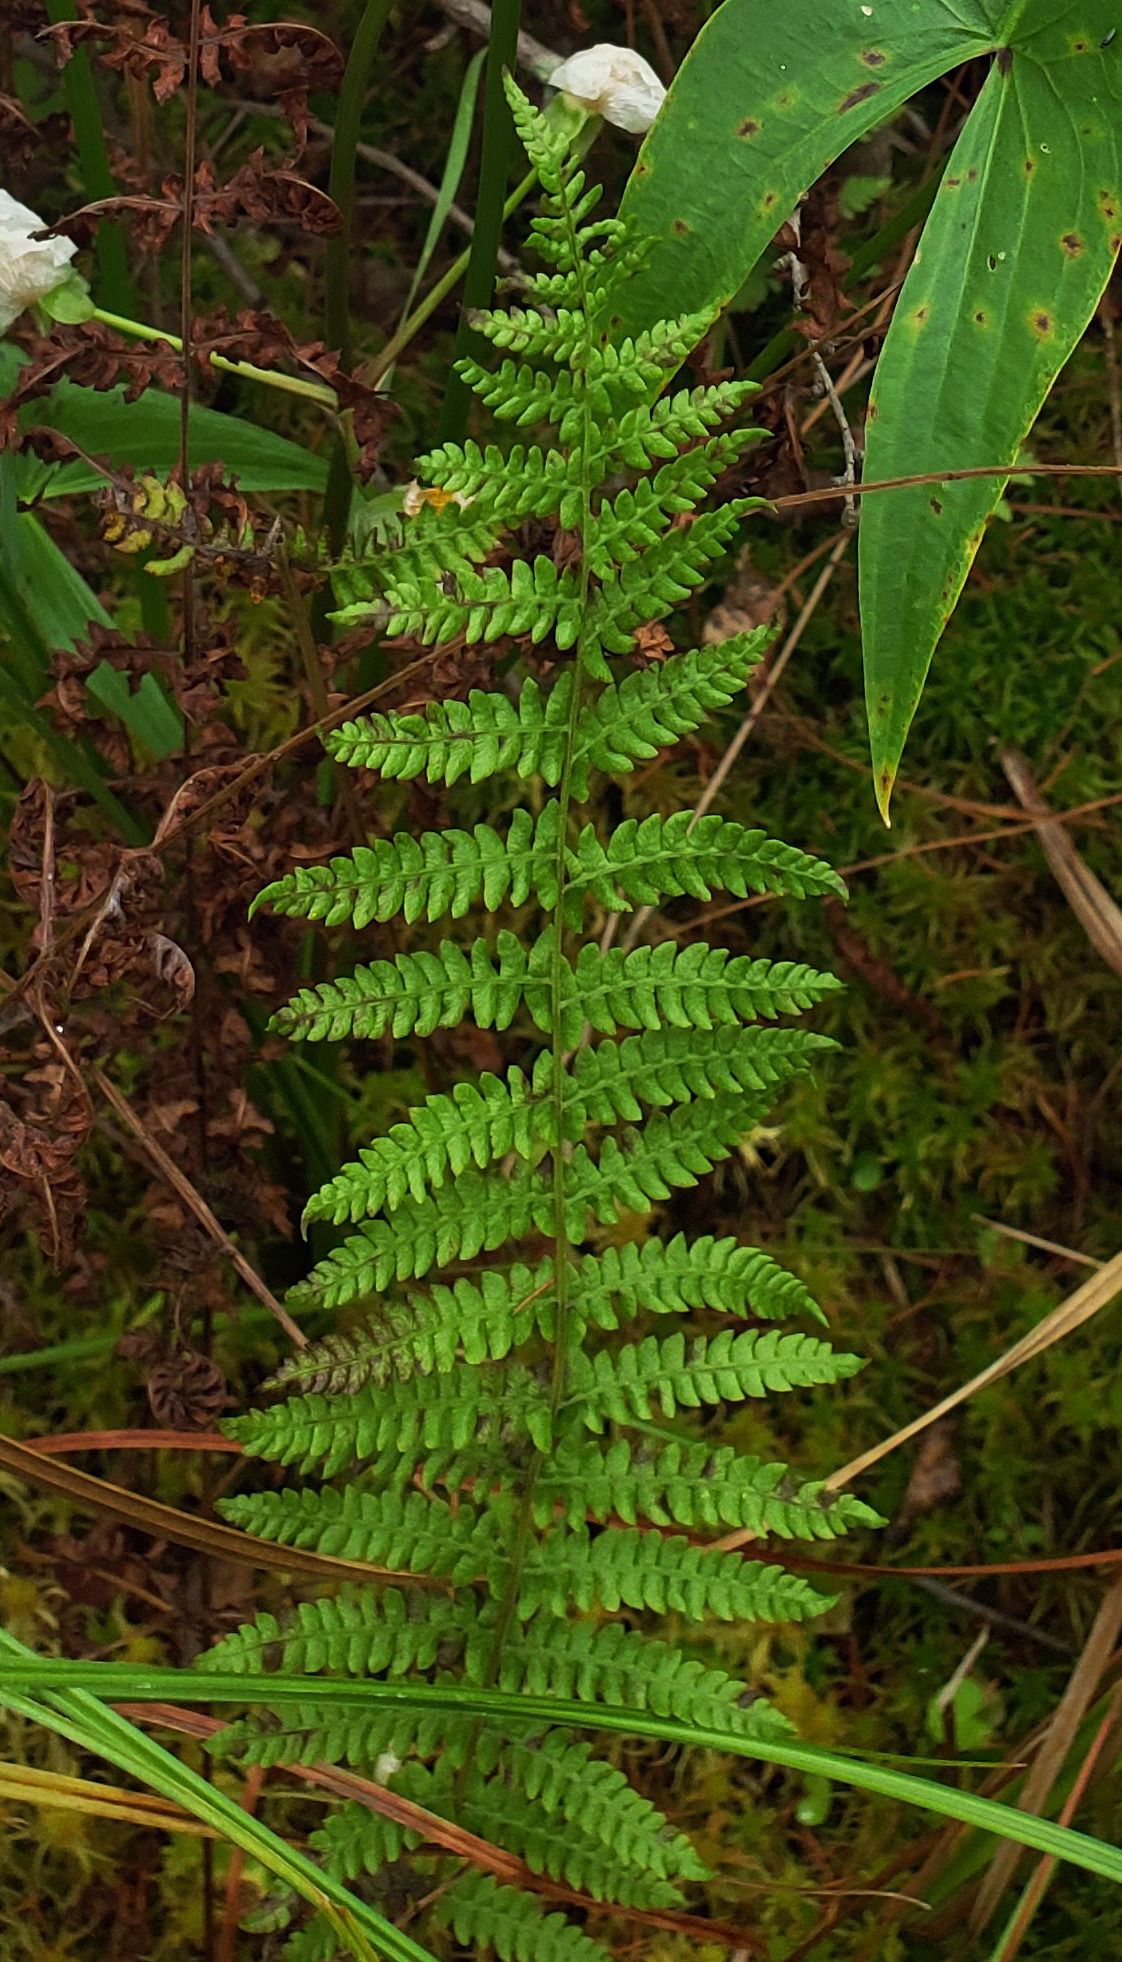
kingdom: Plantae
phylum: Tracheophyta
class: Polypodiopsida
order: Polypodiales
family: Thelypteridaceae
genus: Thelypteris
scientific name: Thelypteris palustris
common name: Marsh fern
